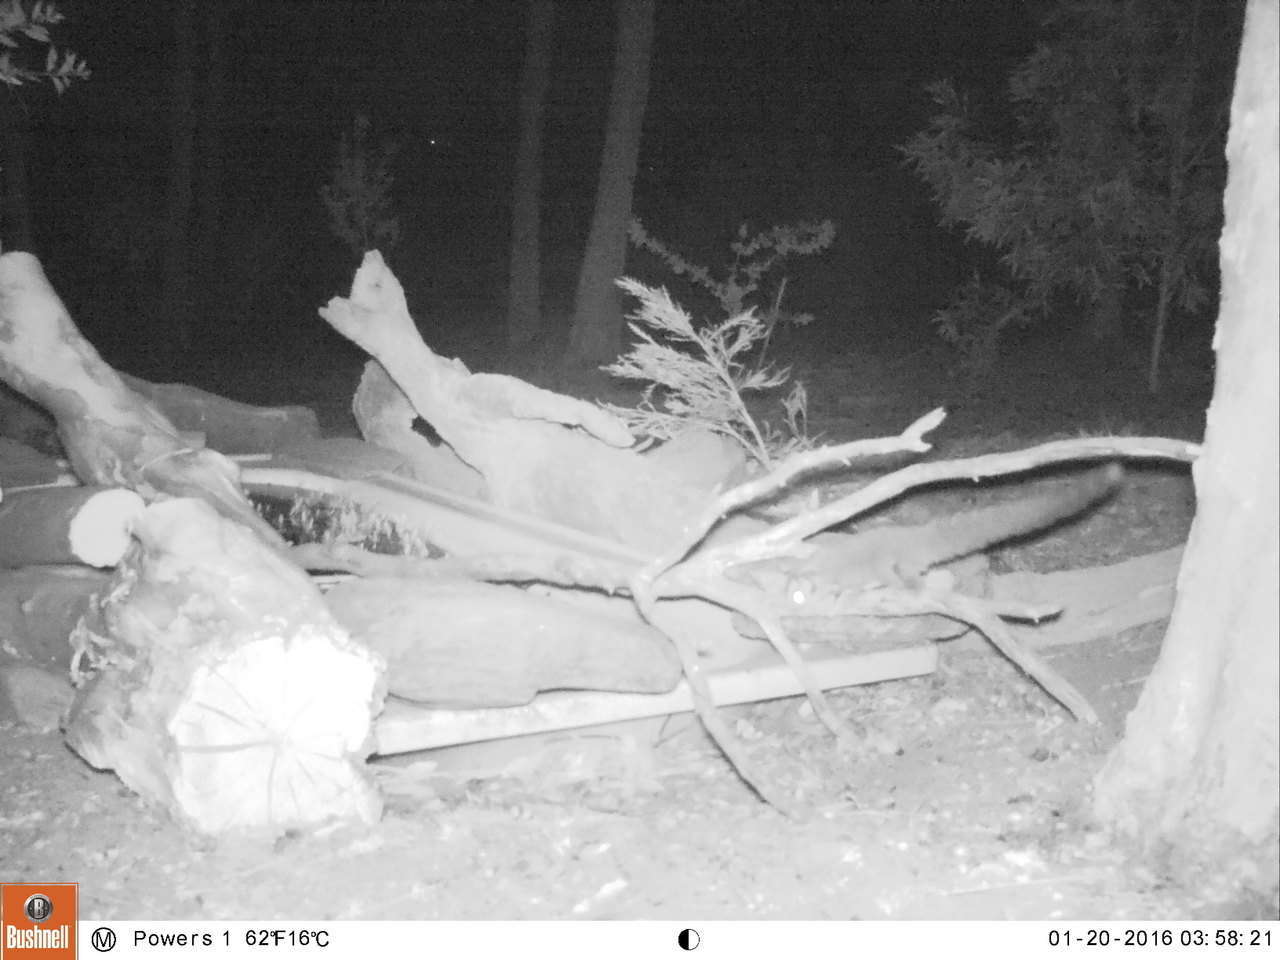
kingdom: Animalia
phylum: Chordata
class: Mammalia
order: Diprotodontia
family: Petauridae
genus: Petaurus
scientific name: Petaurus breviceps
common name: Sugar glider
